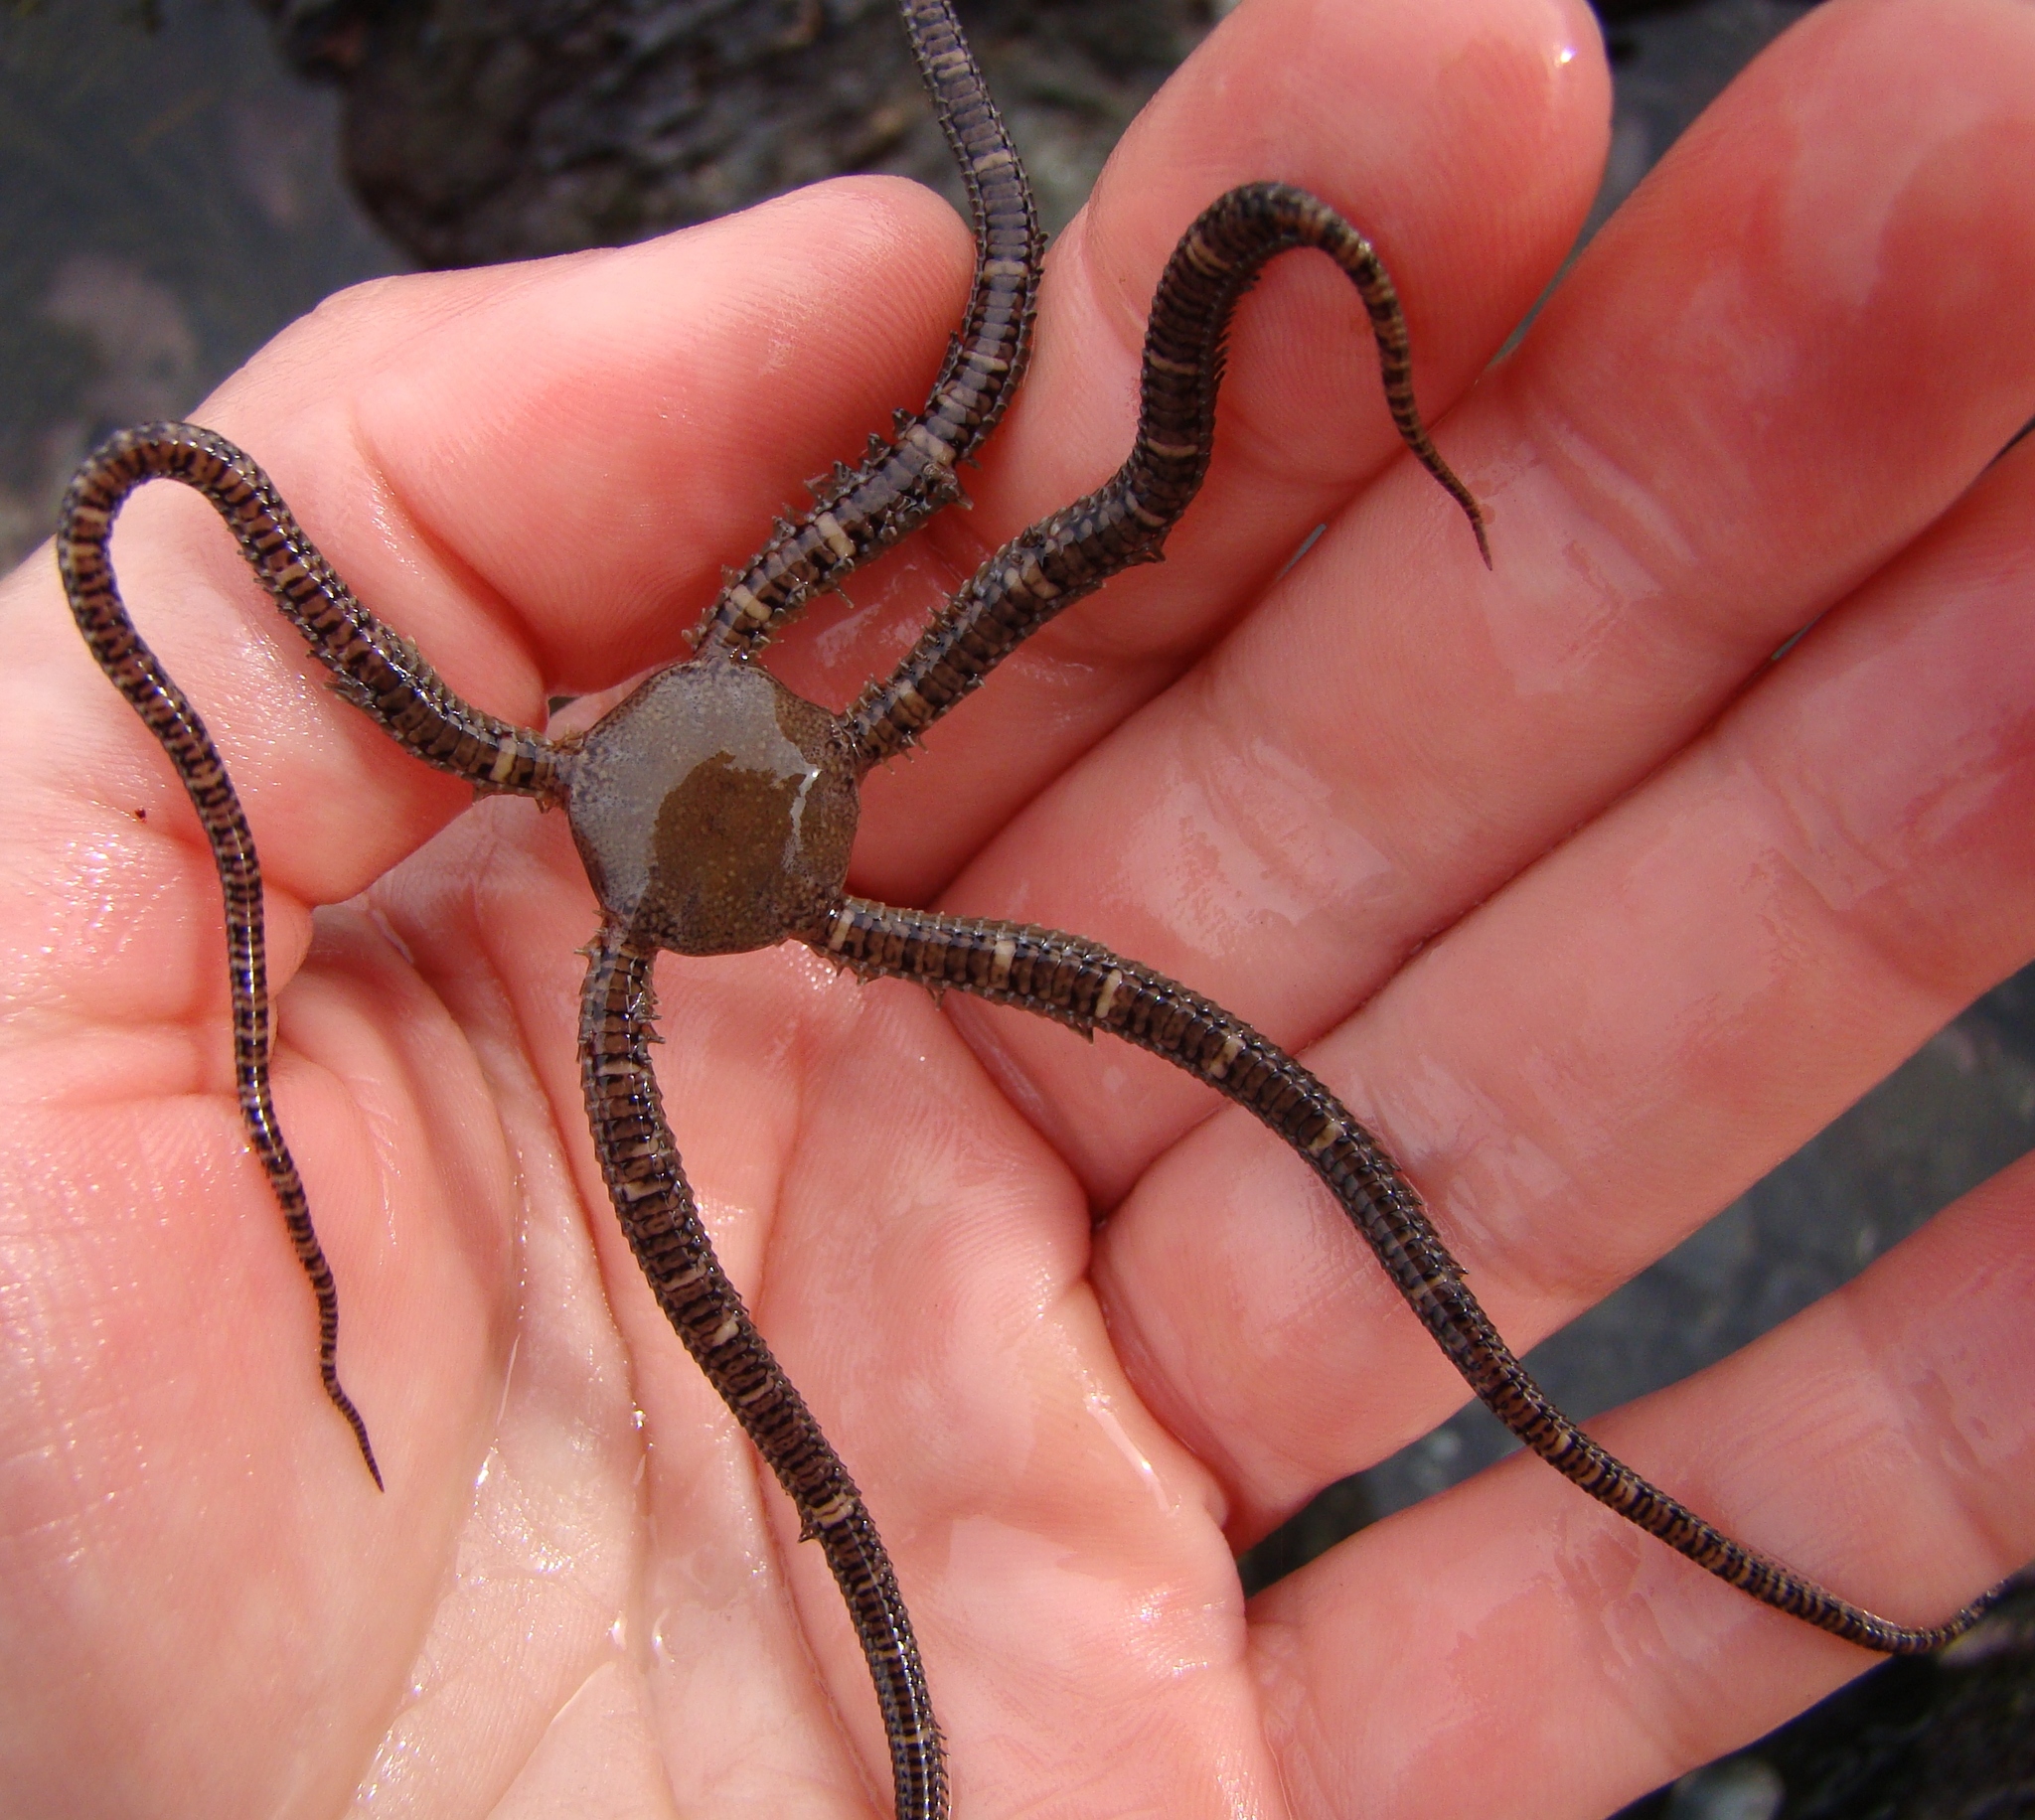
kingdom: Animalia
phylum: Echinodermata
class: Ophiuroidea
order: Amphilepidida
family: Ophionereididae
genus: Ophionereis
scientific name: Ophionereis fasciata
